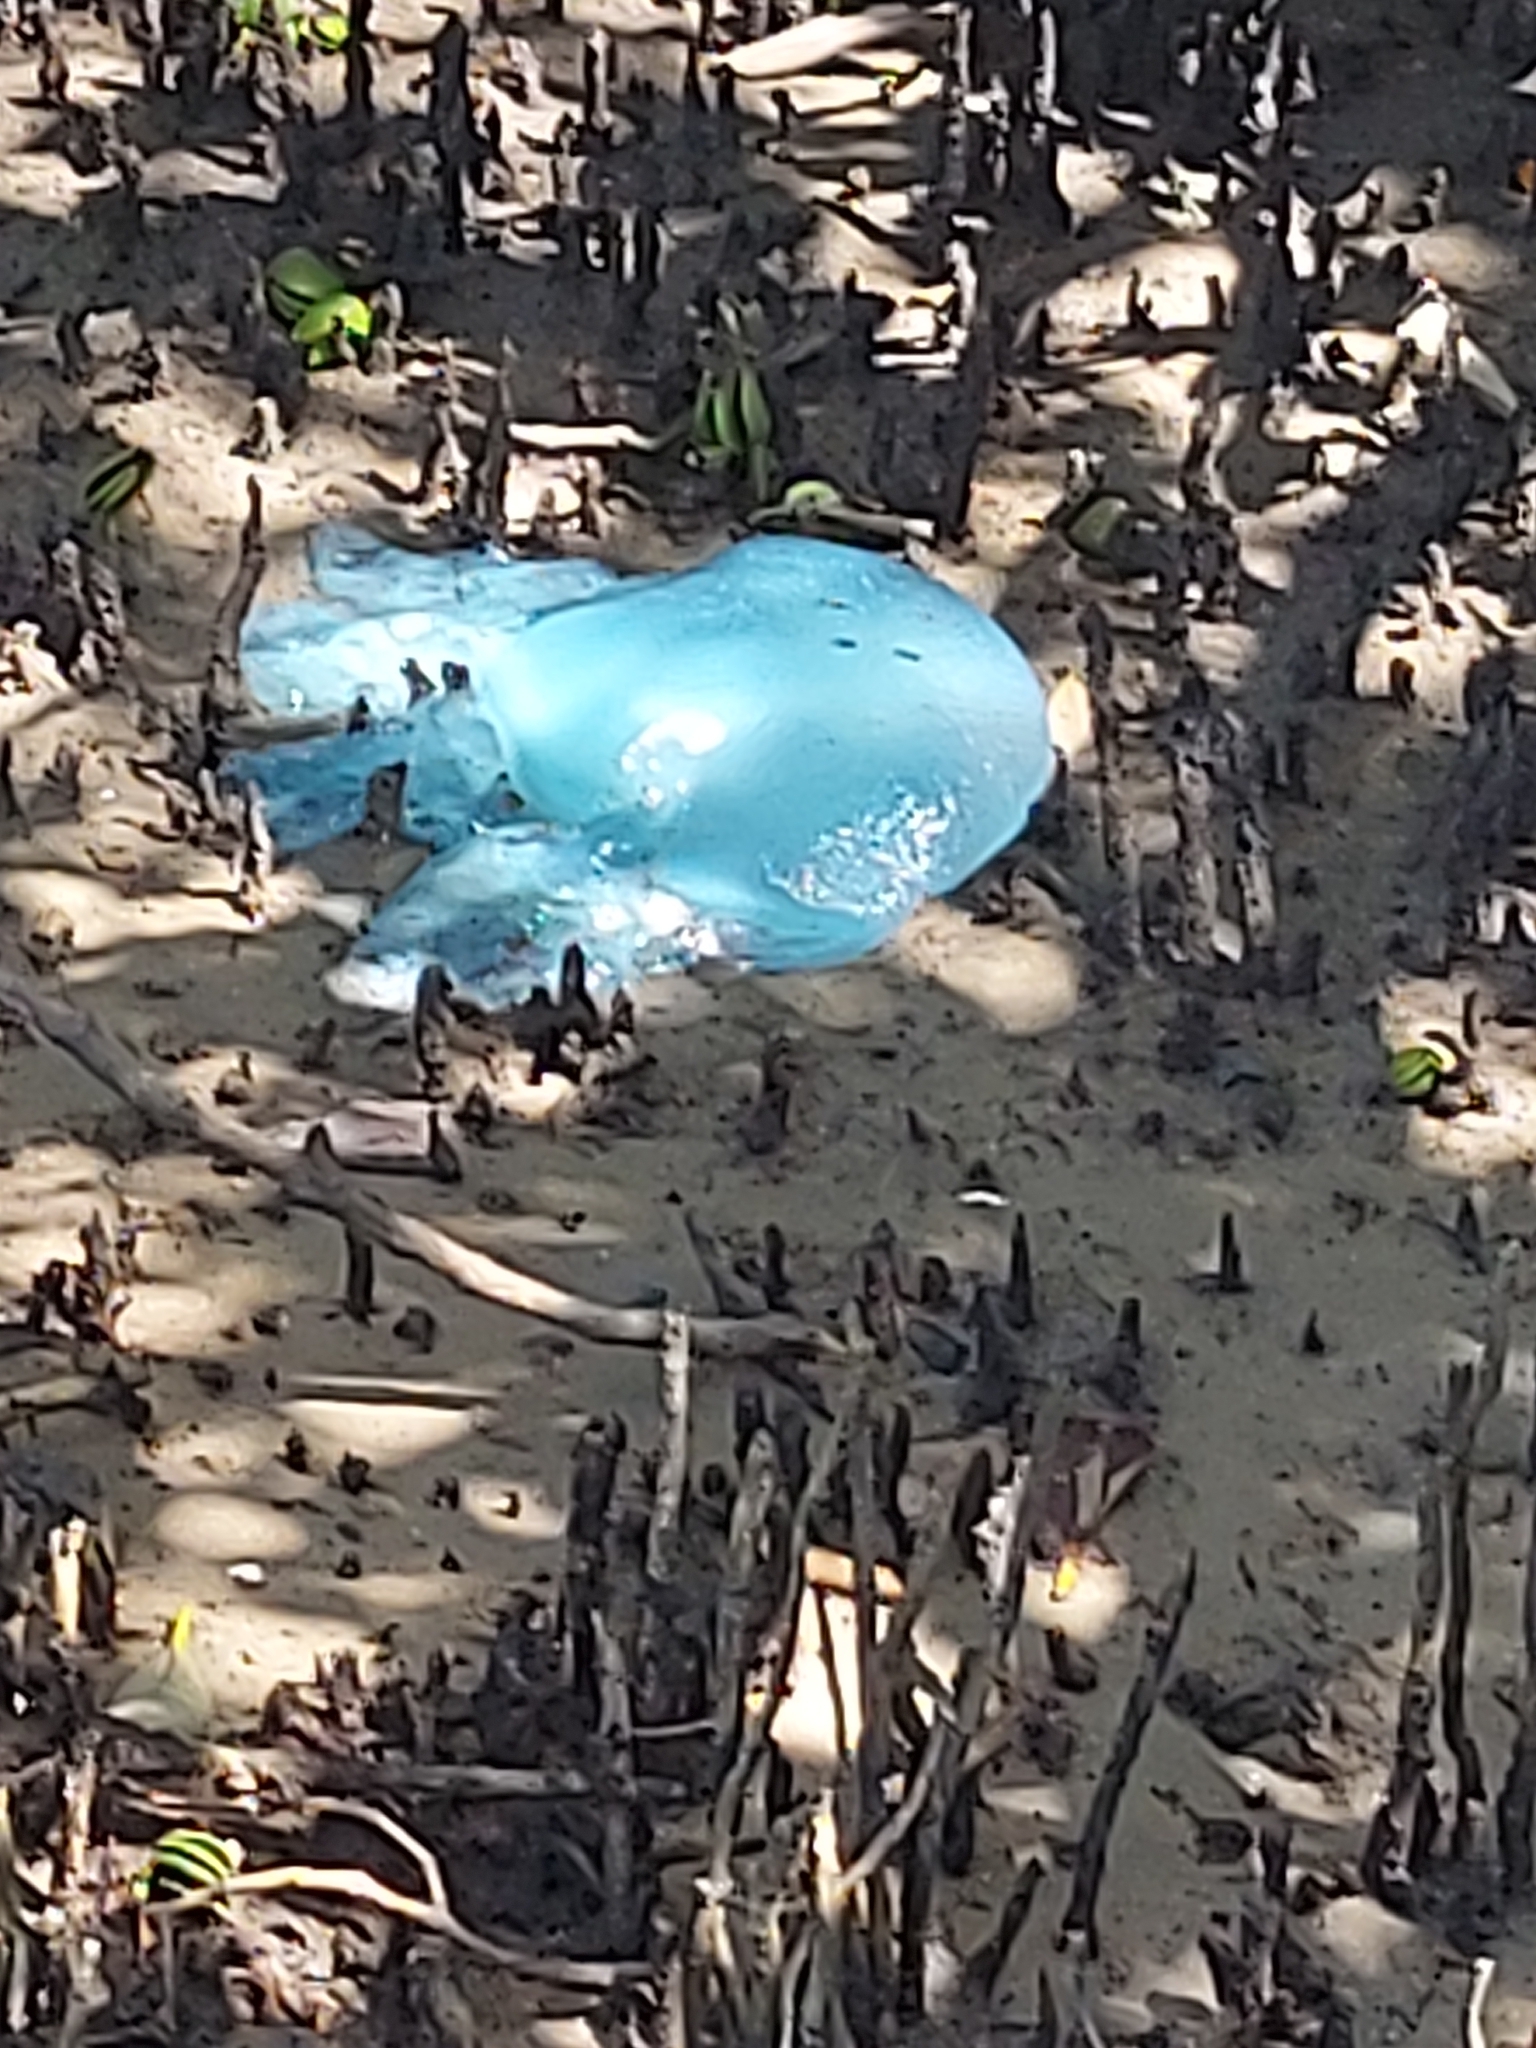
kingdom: Animalia
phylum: Cnidaria
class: Scyphozoa
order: Rhizostomeae
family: Catostylidae
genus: Catostylus
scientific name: Catostylus mosaicus
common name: Blue blubber
